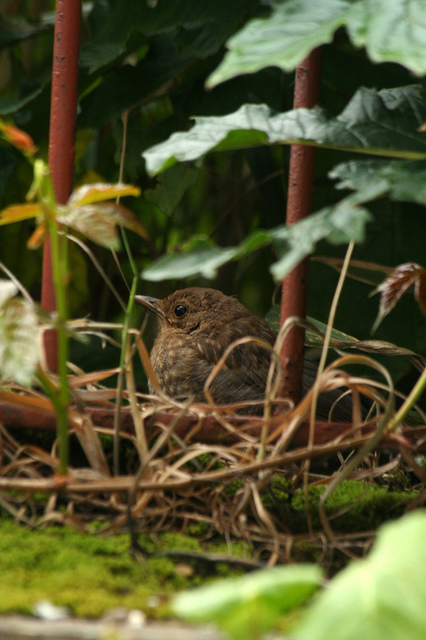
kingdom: Animalia
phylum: Chordata
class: Aves
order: Passeriformes
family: Turdidae
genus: Turdus
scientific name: Turdus merula
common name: Common blackbird
